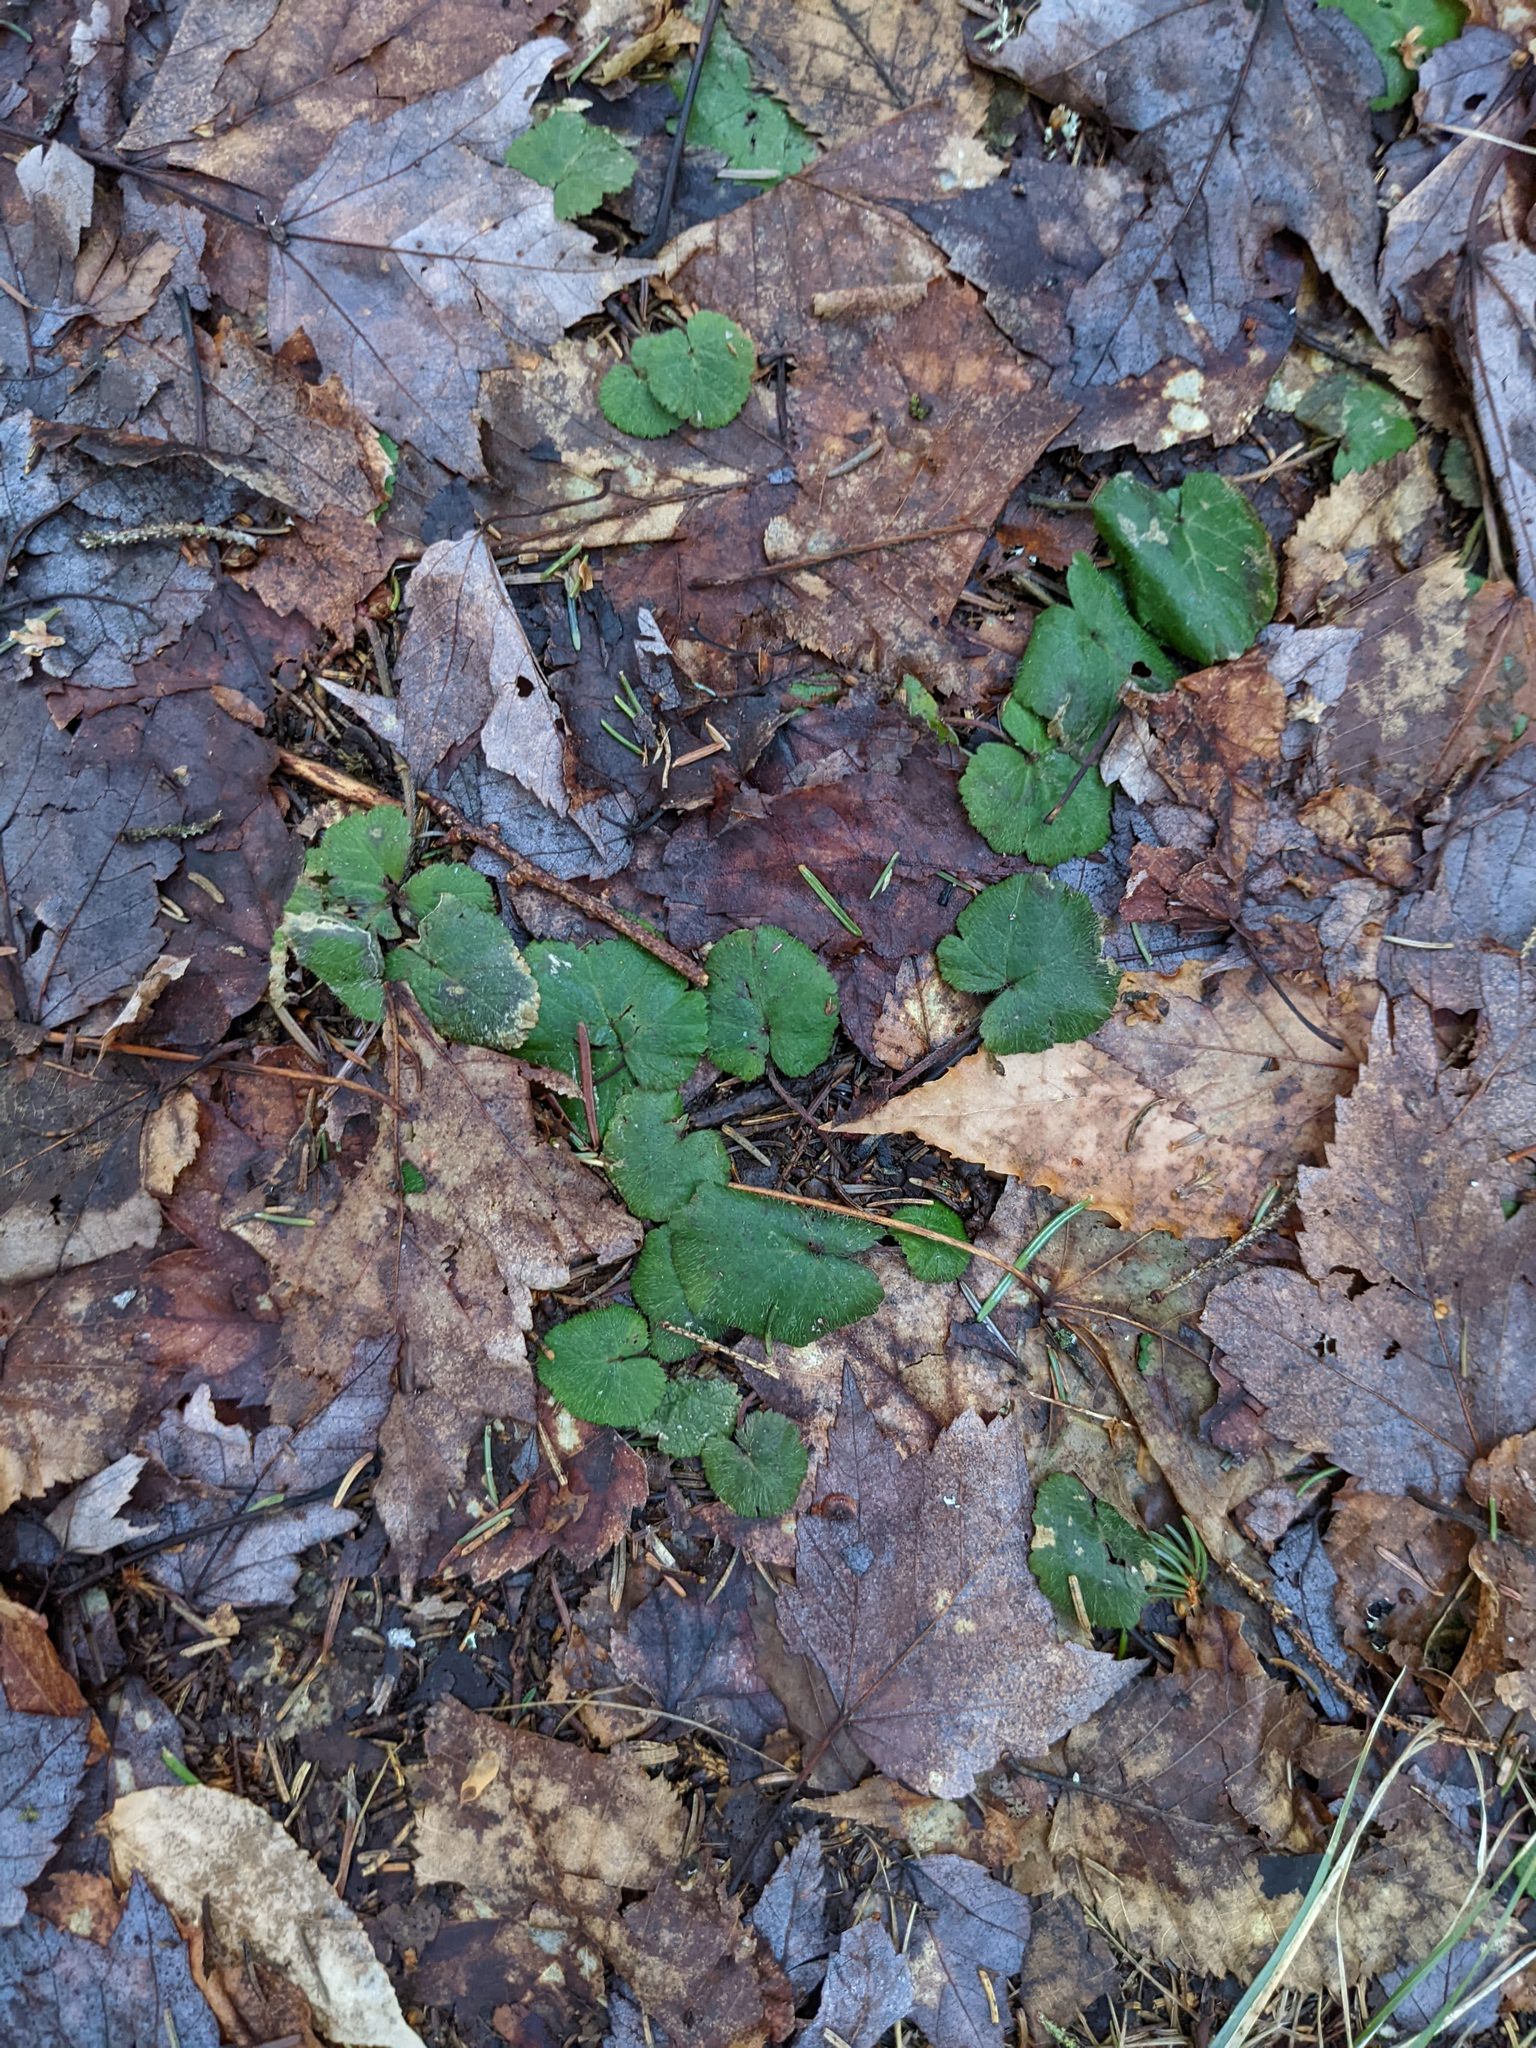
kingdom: Plantae
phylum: Tracheophyta
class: Magnoliopsida
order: Rosales
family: Rosaceae
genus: Dalibarda
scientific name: Dalibarda repens
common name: Dewdrop
